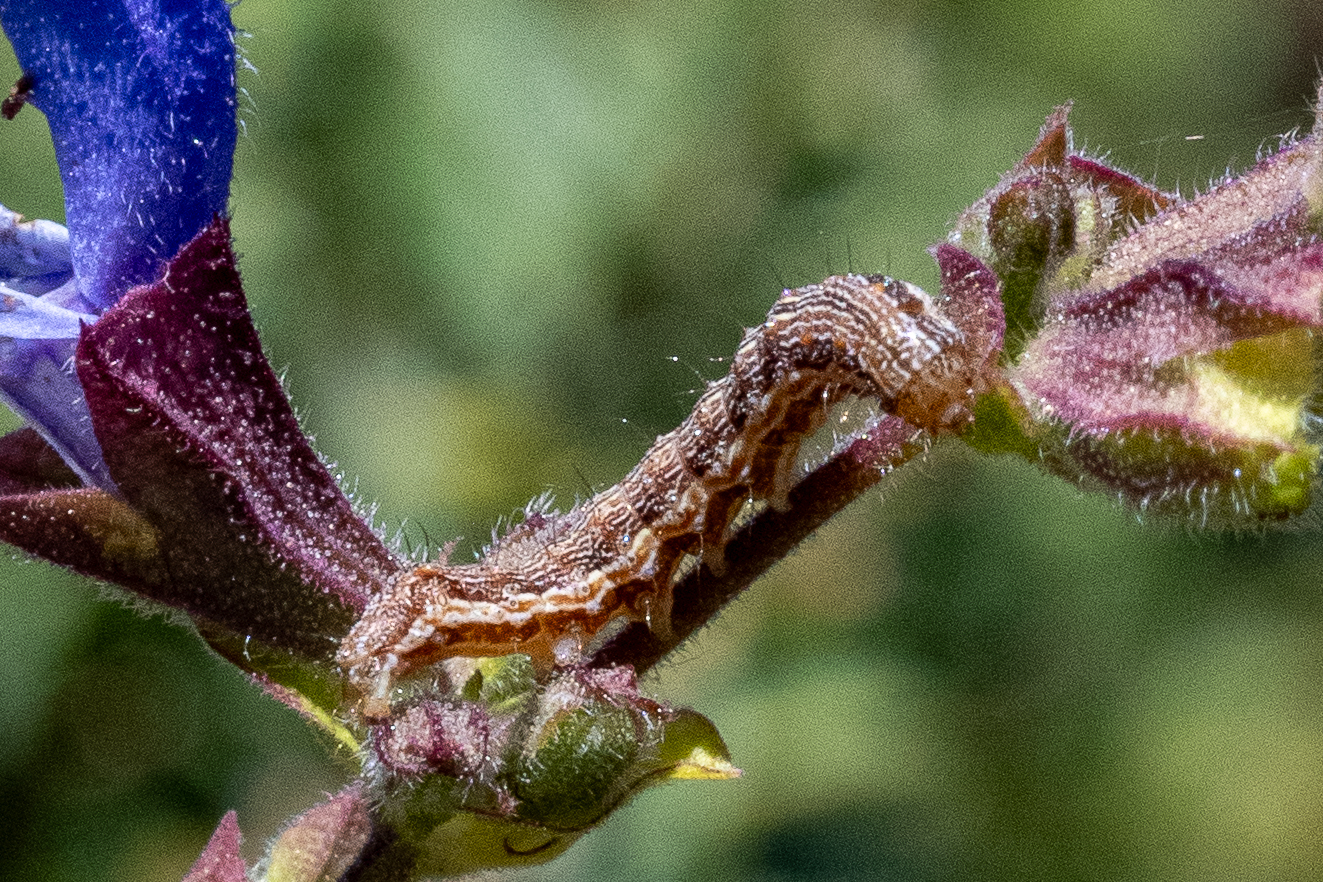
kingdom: Animalia
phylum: Arthropoda
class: Insecta
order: Lepidoptera
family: Noctuidae
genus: Helicoverpa
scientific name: Helicoverpa armigera
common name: Cotton bollworm
